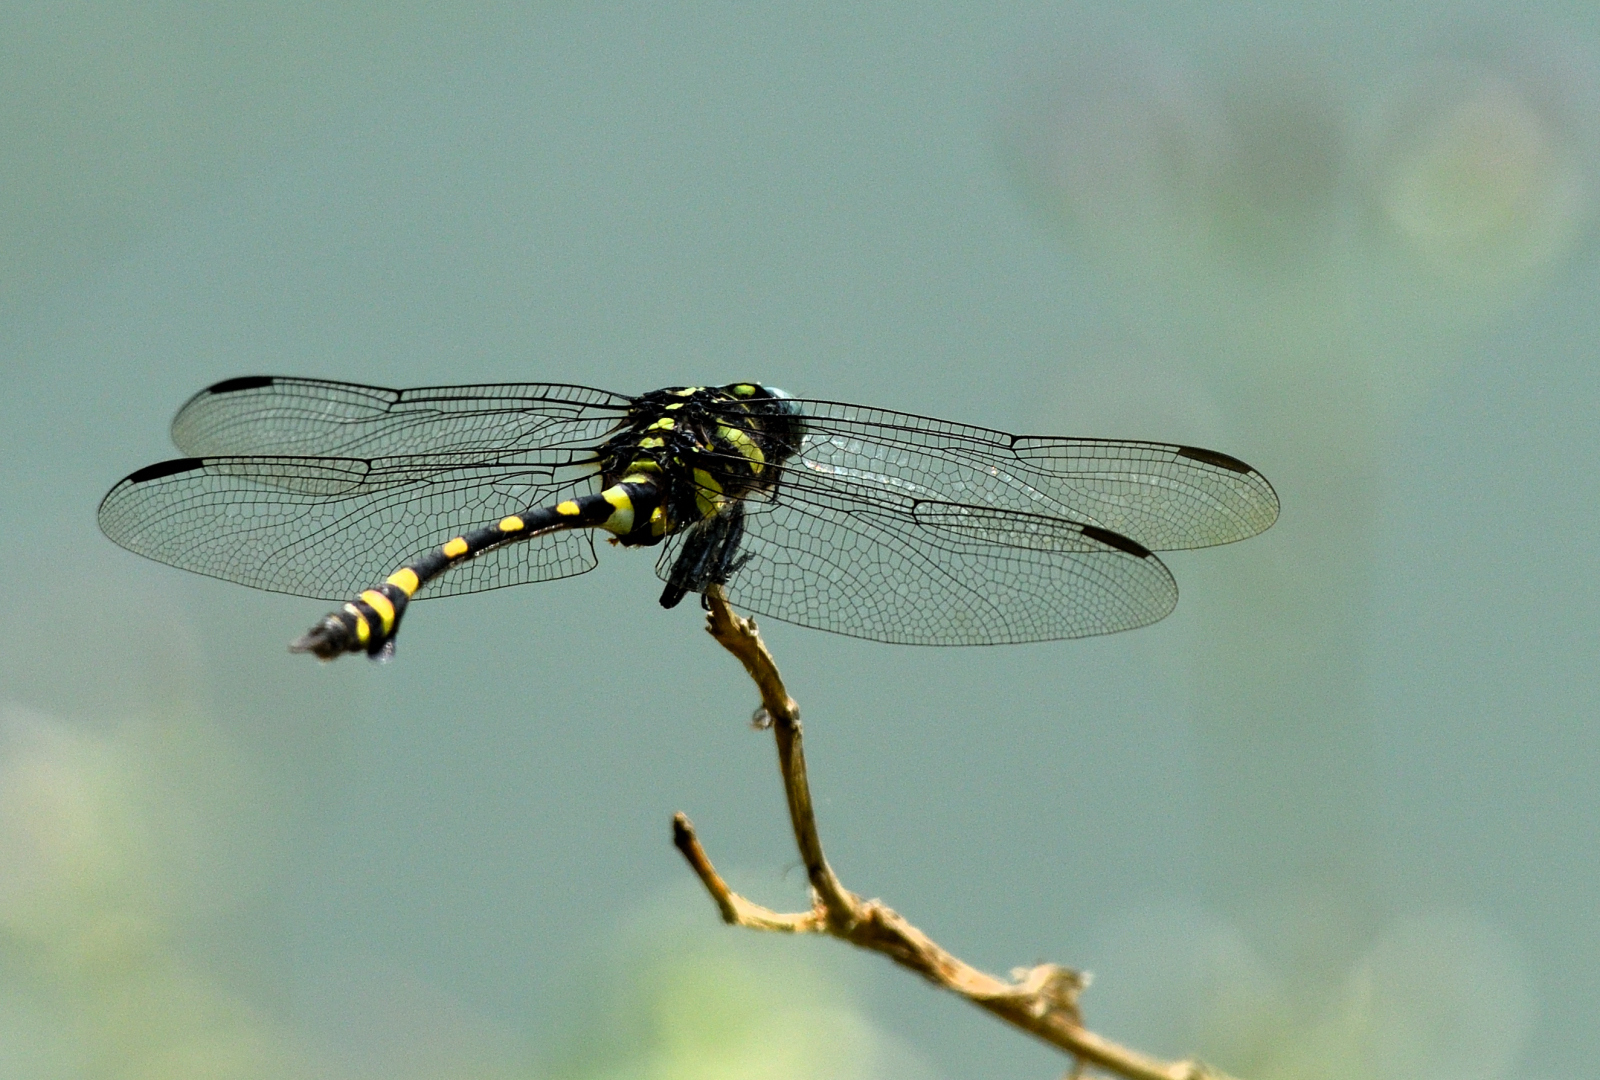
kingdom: Animalia
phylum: Arthropoda
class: Insecta
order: Odonata
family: Gomphidae
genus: Ictinogomphus
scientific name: Ictinogomphus rapax
